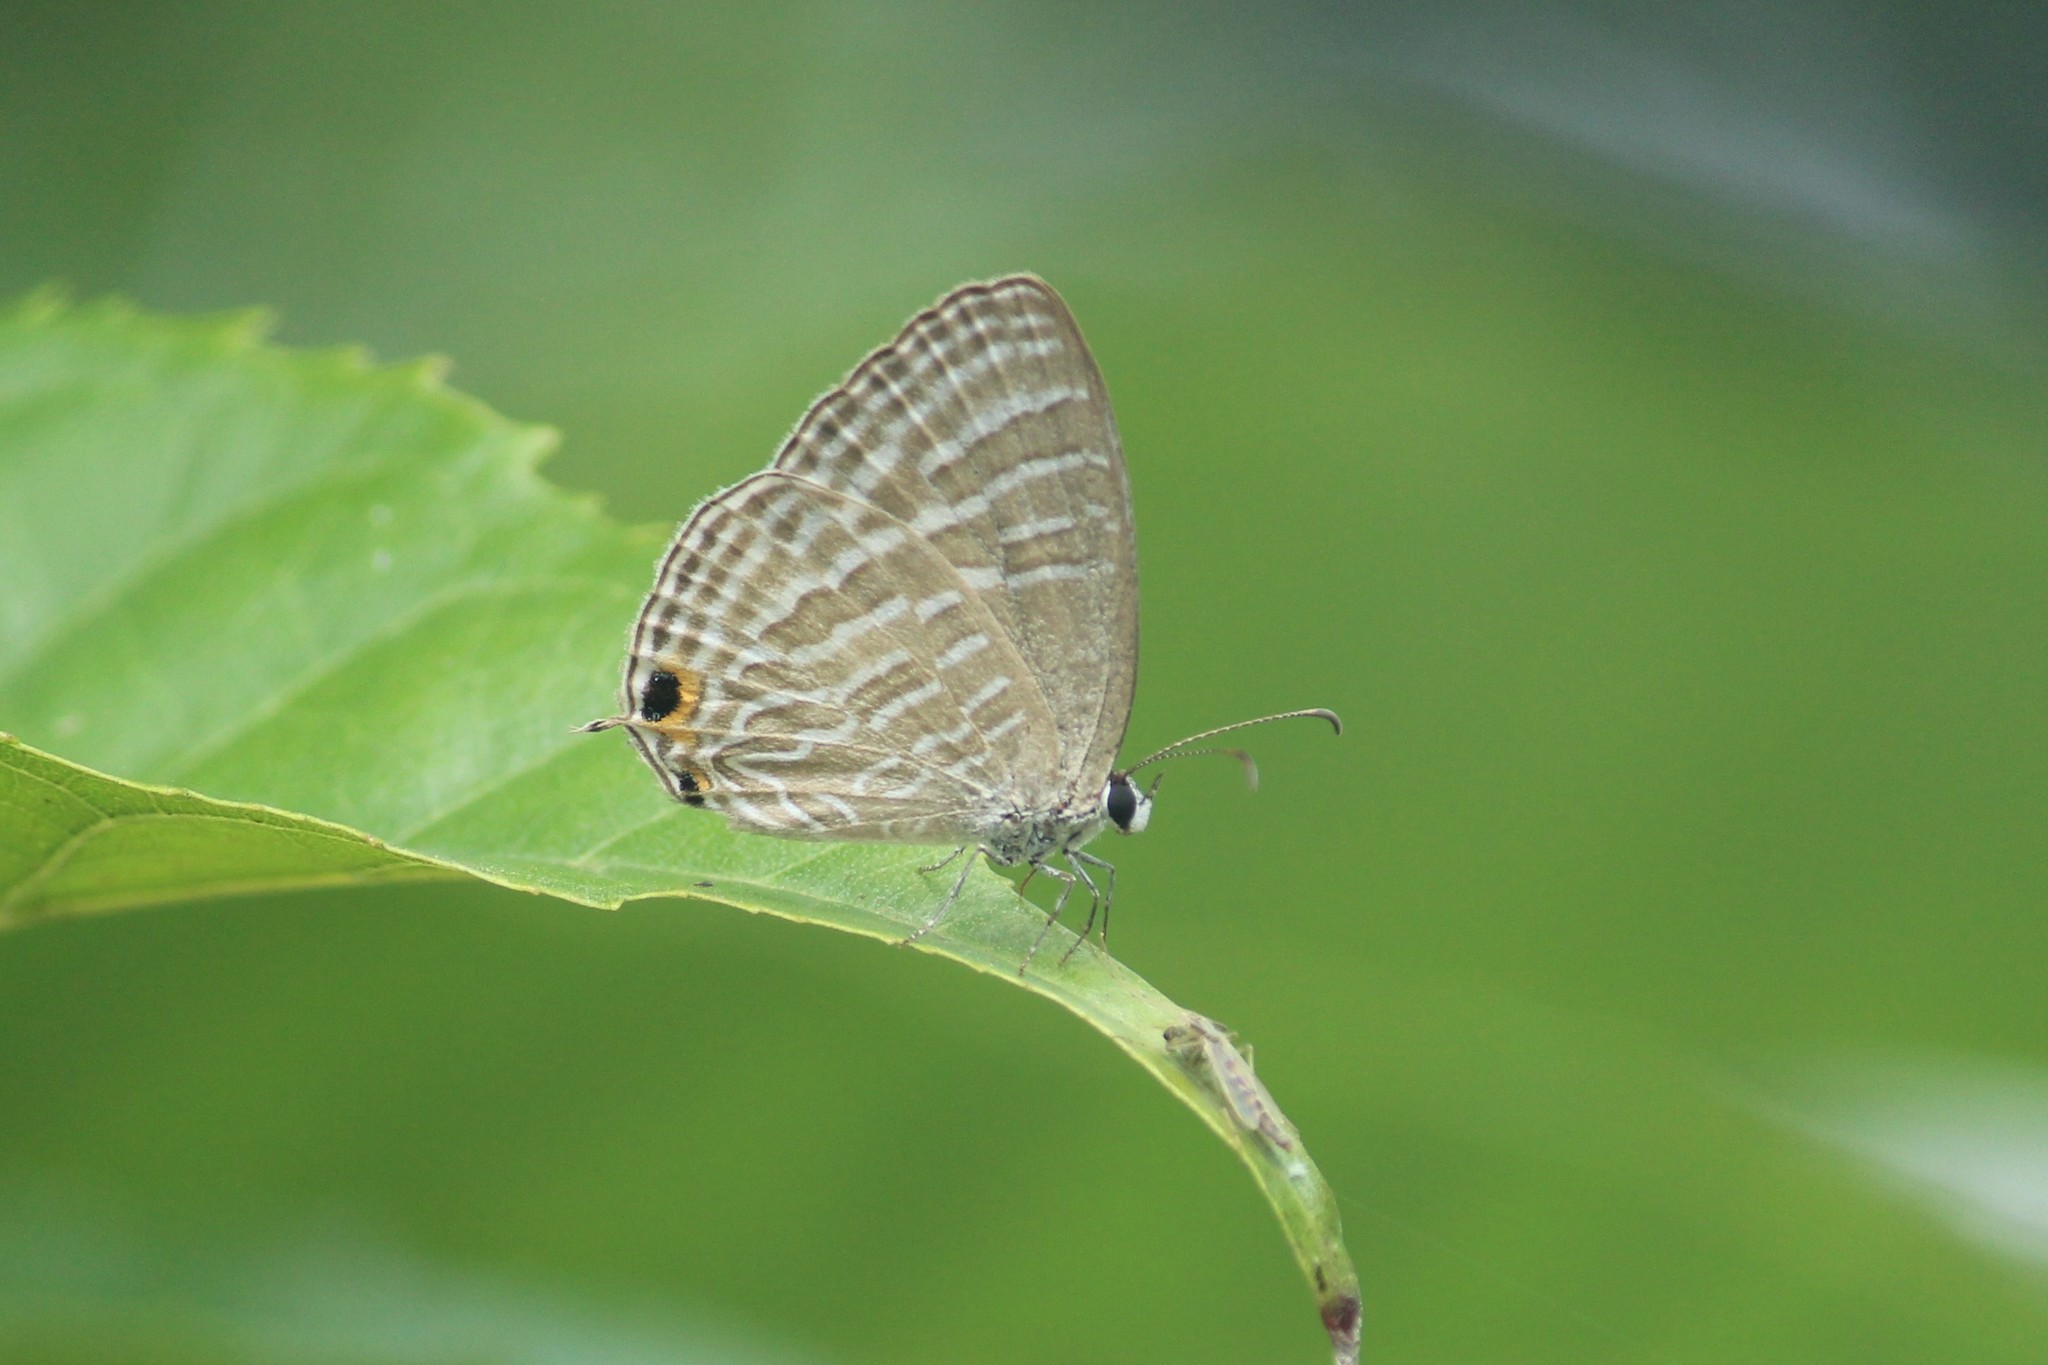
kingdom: Animalia
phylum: Arthropoda
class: Insecta
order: Lepidoptera
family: Lycaenidae
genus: Jamides
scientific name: Jamides celeno
